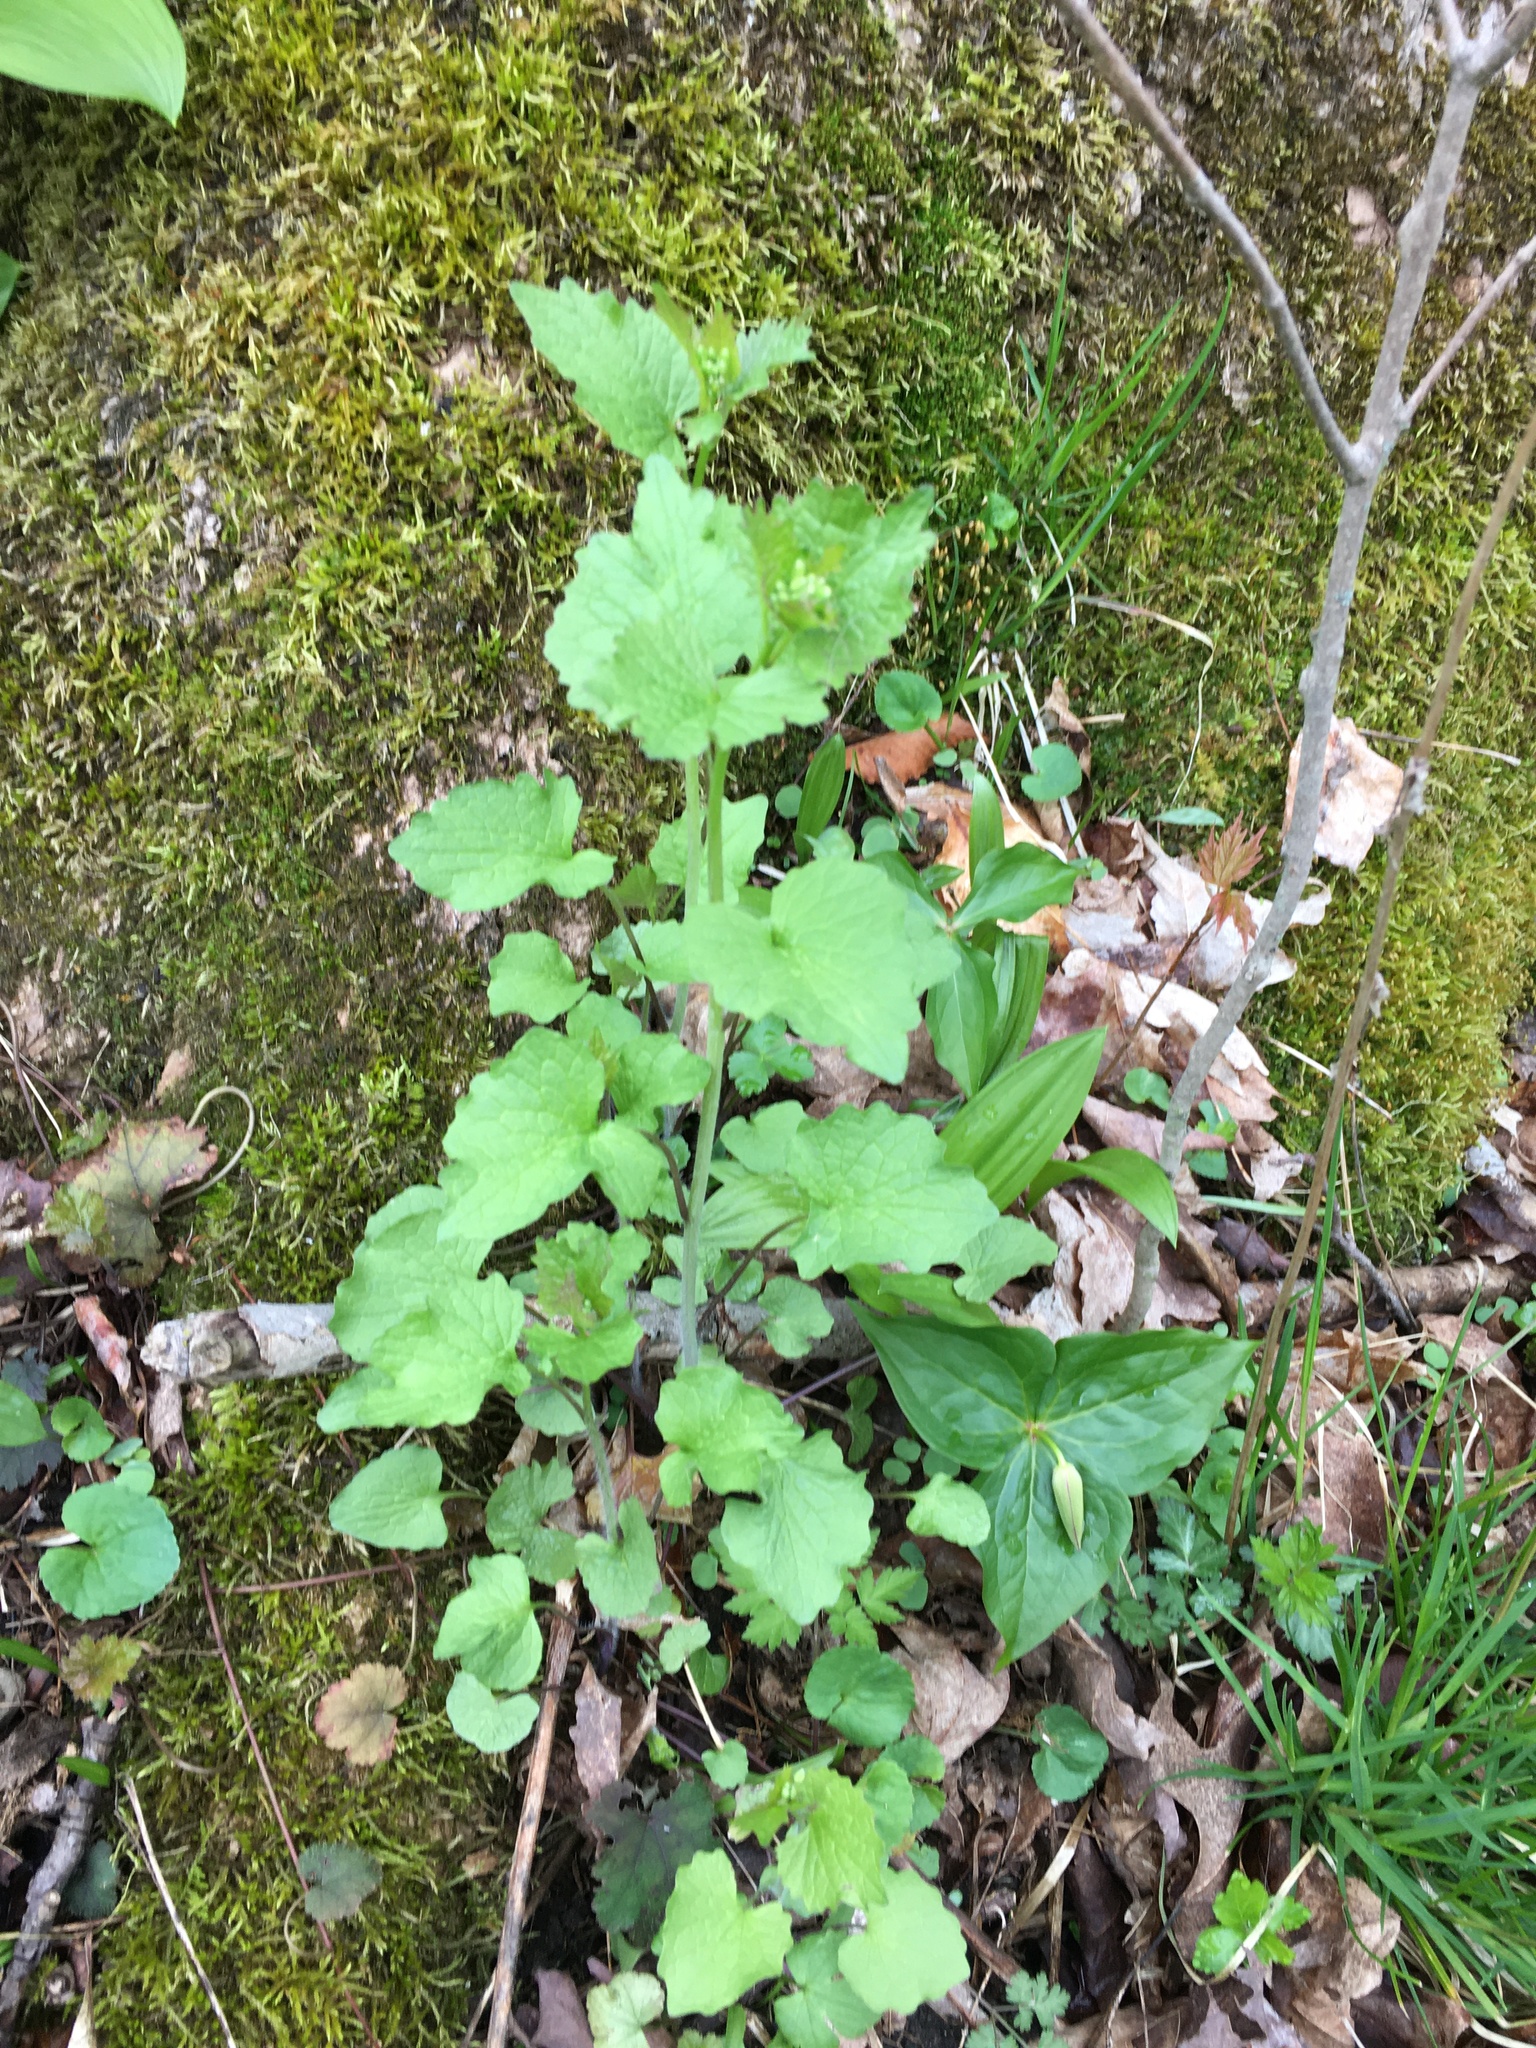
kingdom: Plantae
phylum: Tracheophyta
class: Magnoliopsida
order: Brassicales
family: Brassicaceae
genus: Alliaria
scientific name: Alliaria petiolata
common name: Garlic mustard
